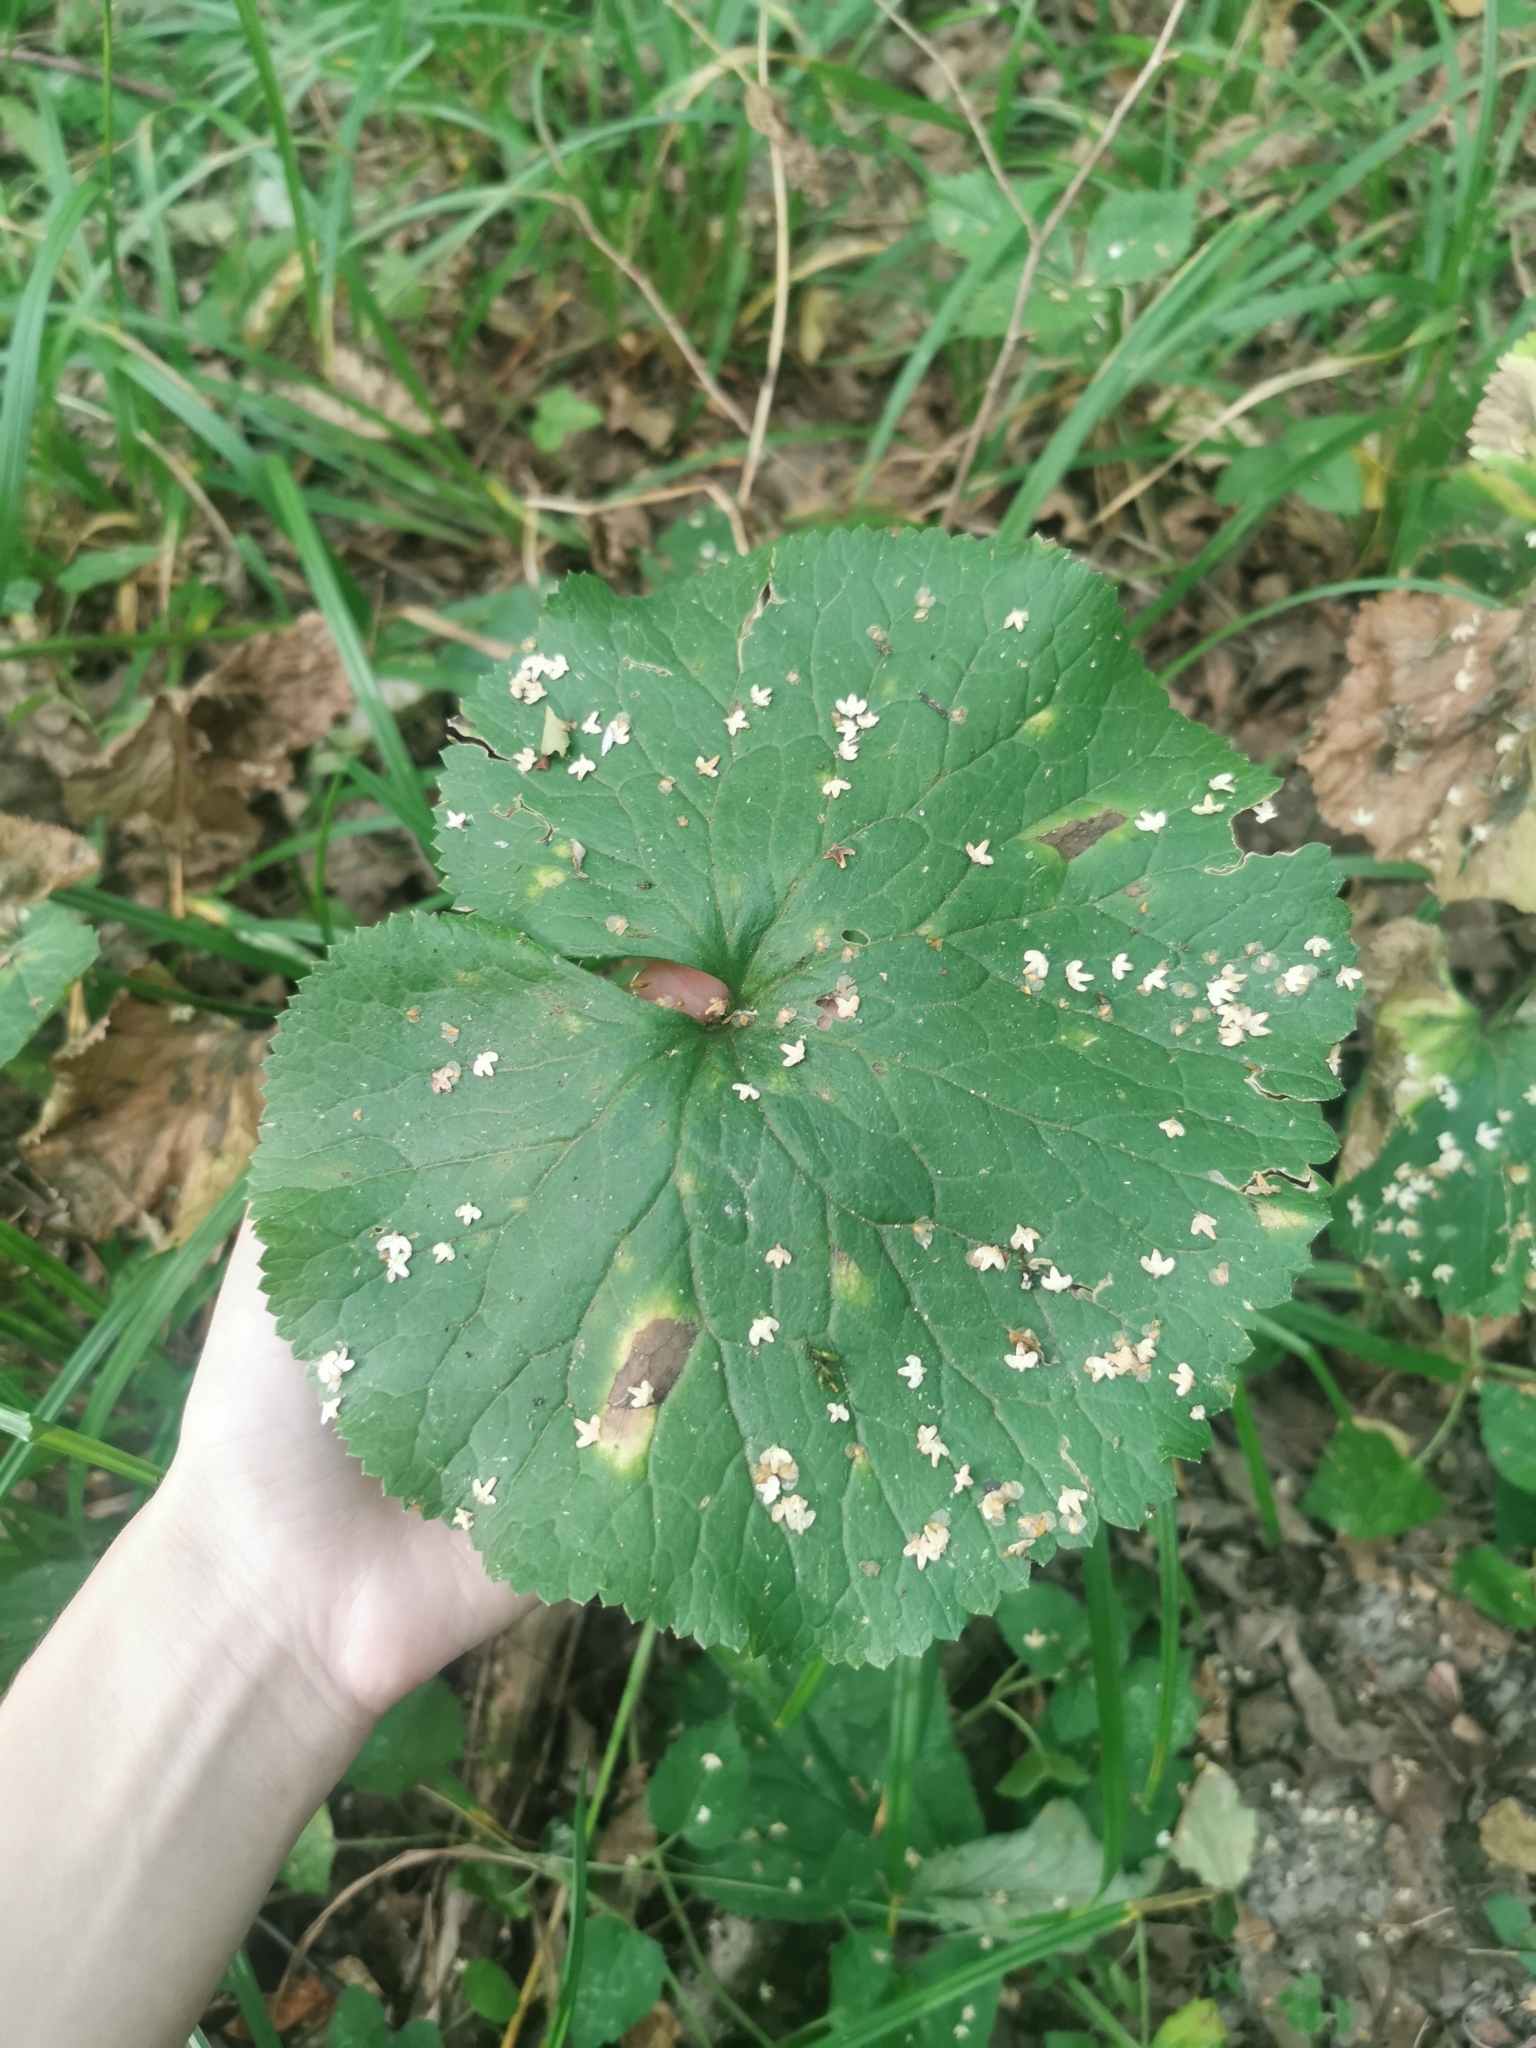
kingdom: Plantae
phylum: Tracheophyta
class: Magnoliopsida
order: Ranunculales
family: Ranunculaceae
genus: Ranunculus
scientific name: Ranunculus cassubicus
